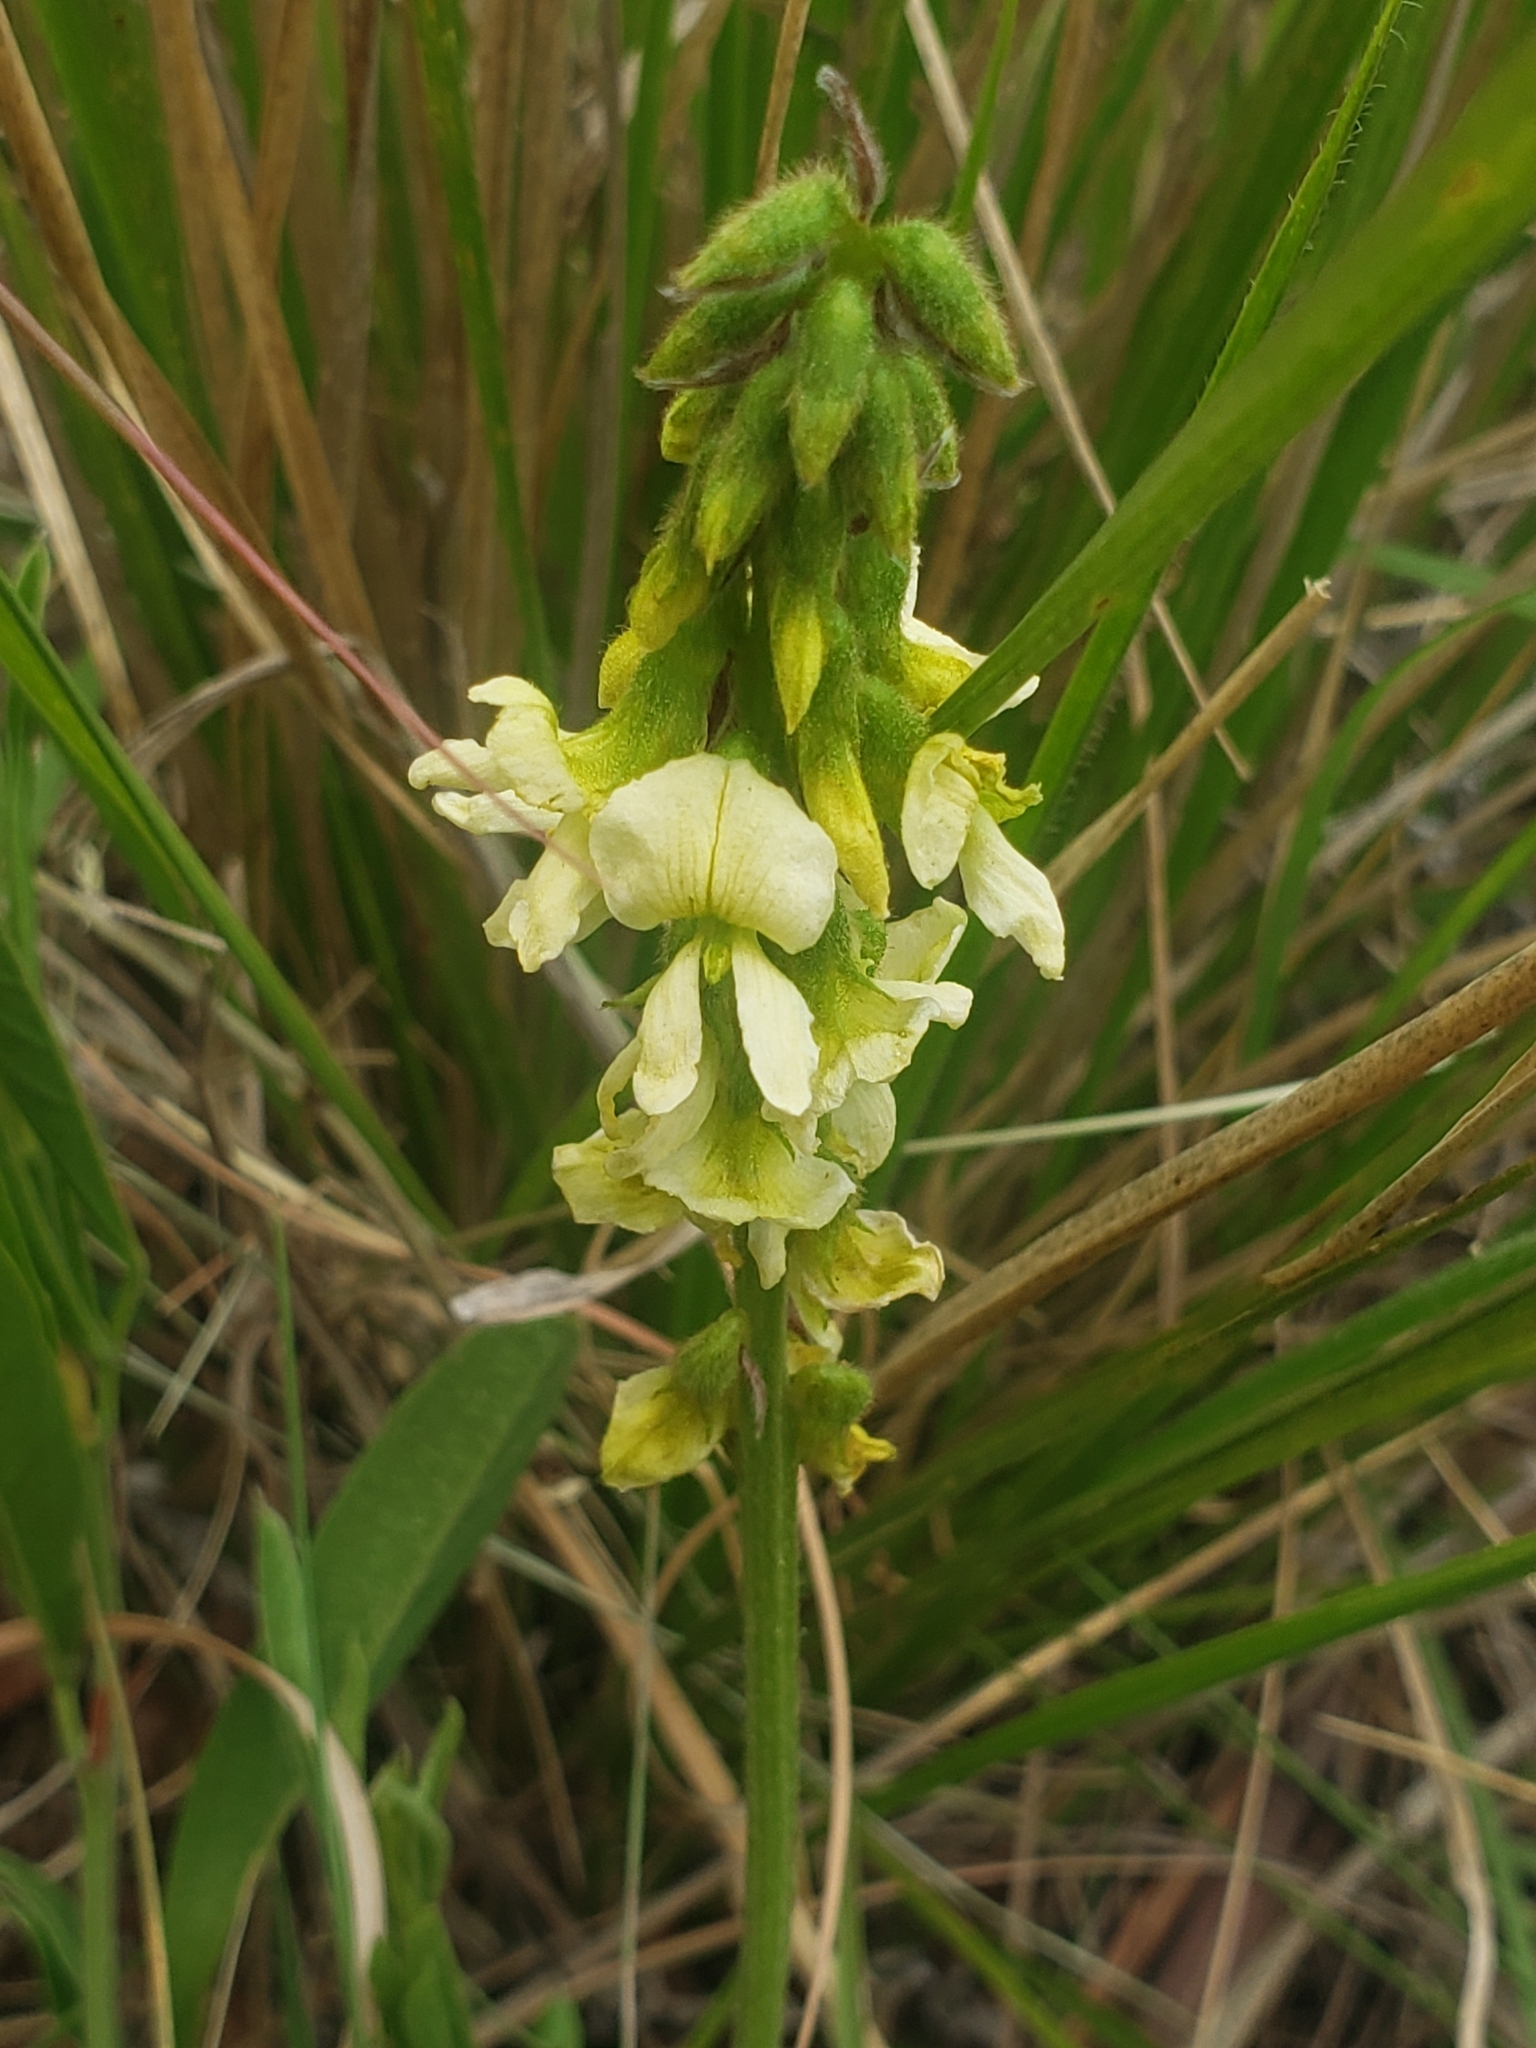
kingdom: Plantae
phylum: Tracheophyta
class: Magnoliopsida
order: Fabales
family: Fabaceae
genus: Eriosema
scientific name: Eriosema kraussianum
